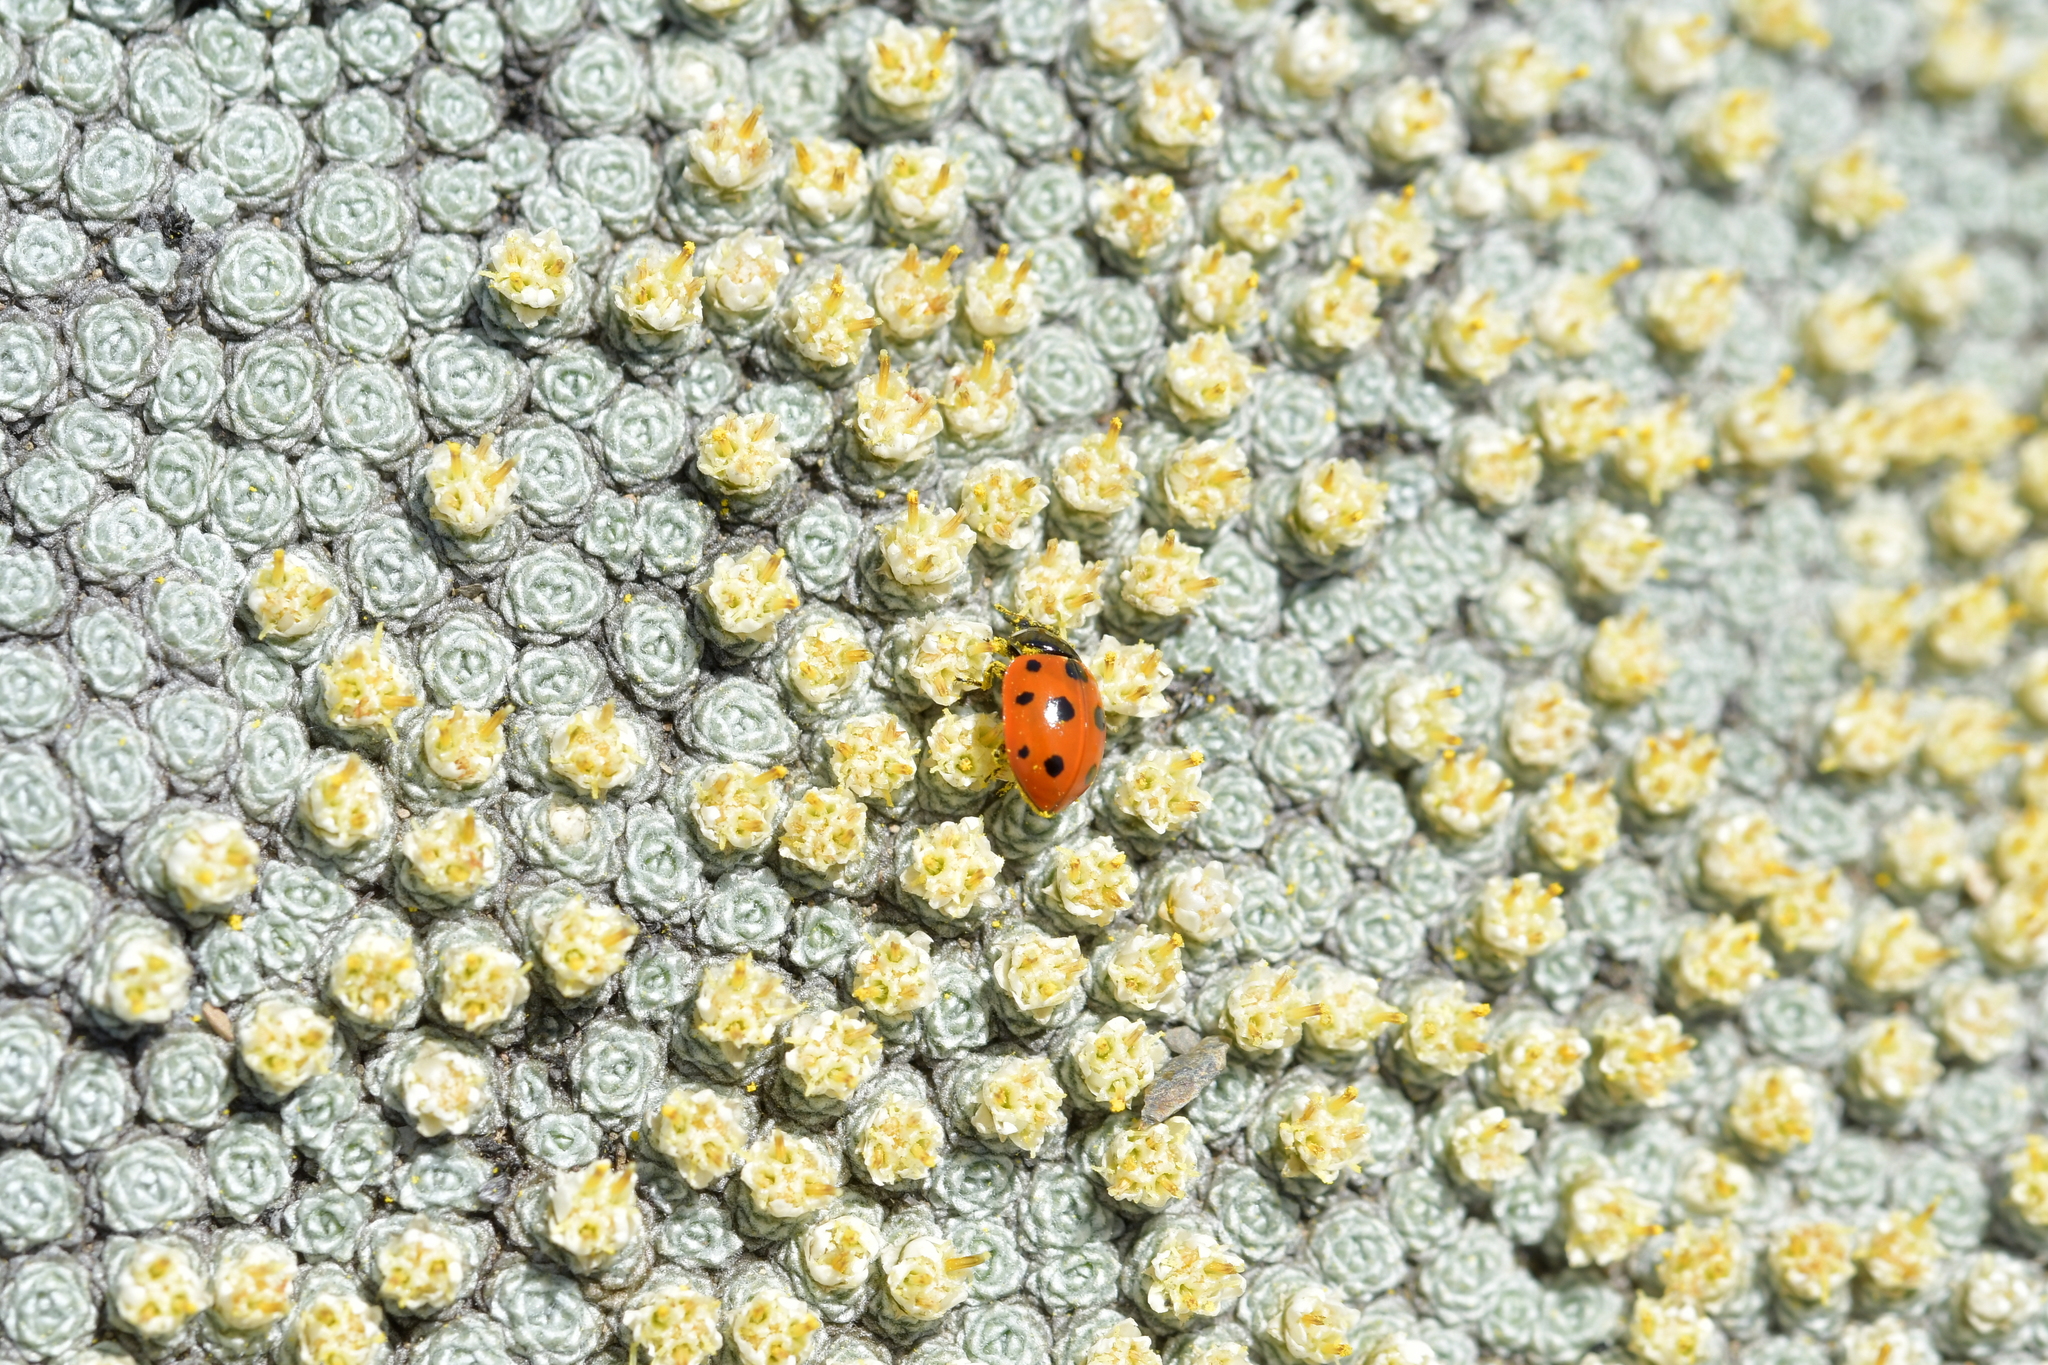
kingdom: Plantae
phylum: Tracheophyta
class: Magnoliopsida
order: Asterales
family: Asteraceae
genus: Raoulia
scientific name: Raoulia bryoides
